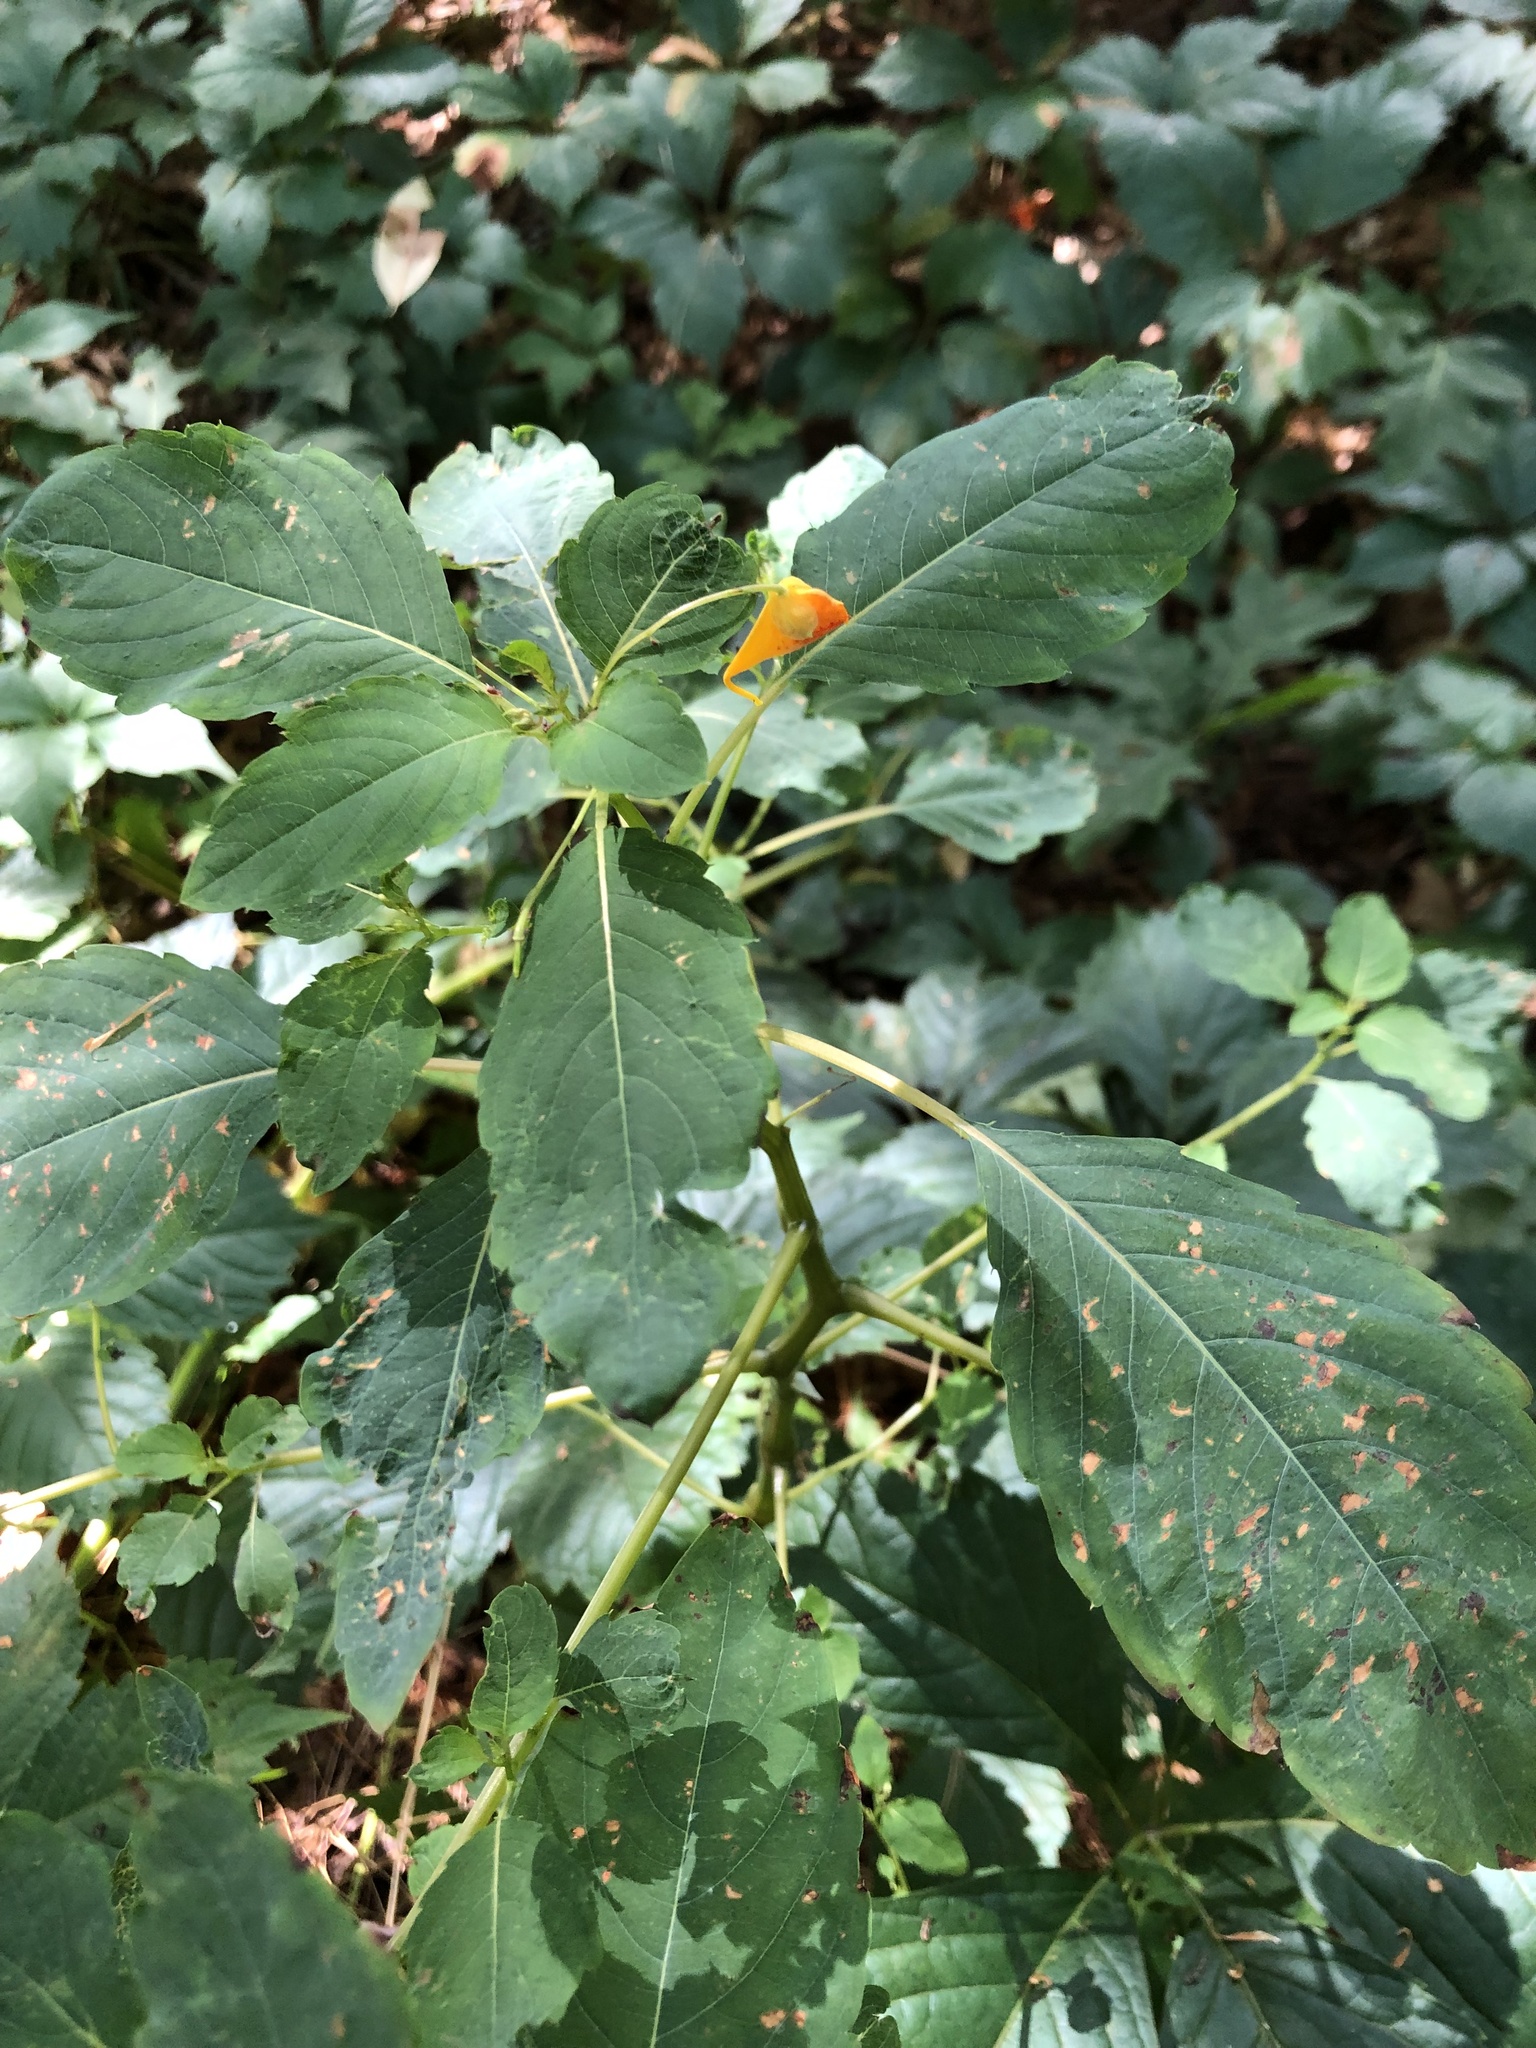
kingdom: Plantae
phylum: Tracheophyta
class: Magnoliopsida
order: Ericales
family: Balsaminaceae
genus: Impatiens
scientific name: Impatiens capensis
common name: Orange balsam
